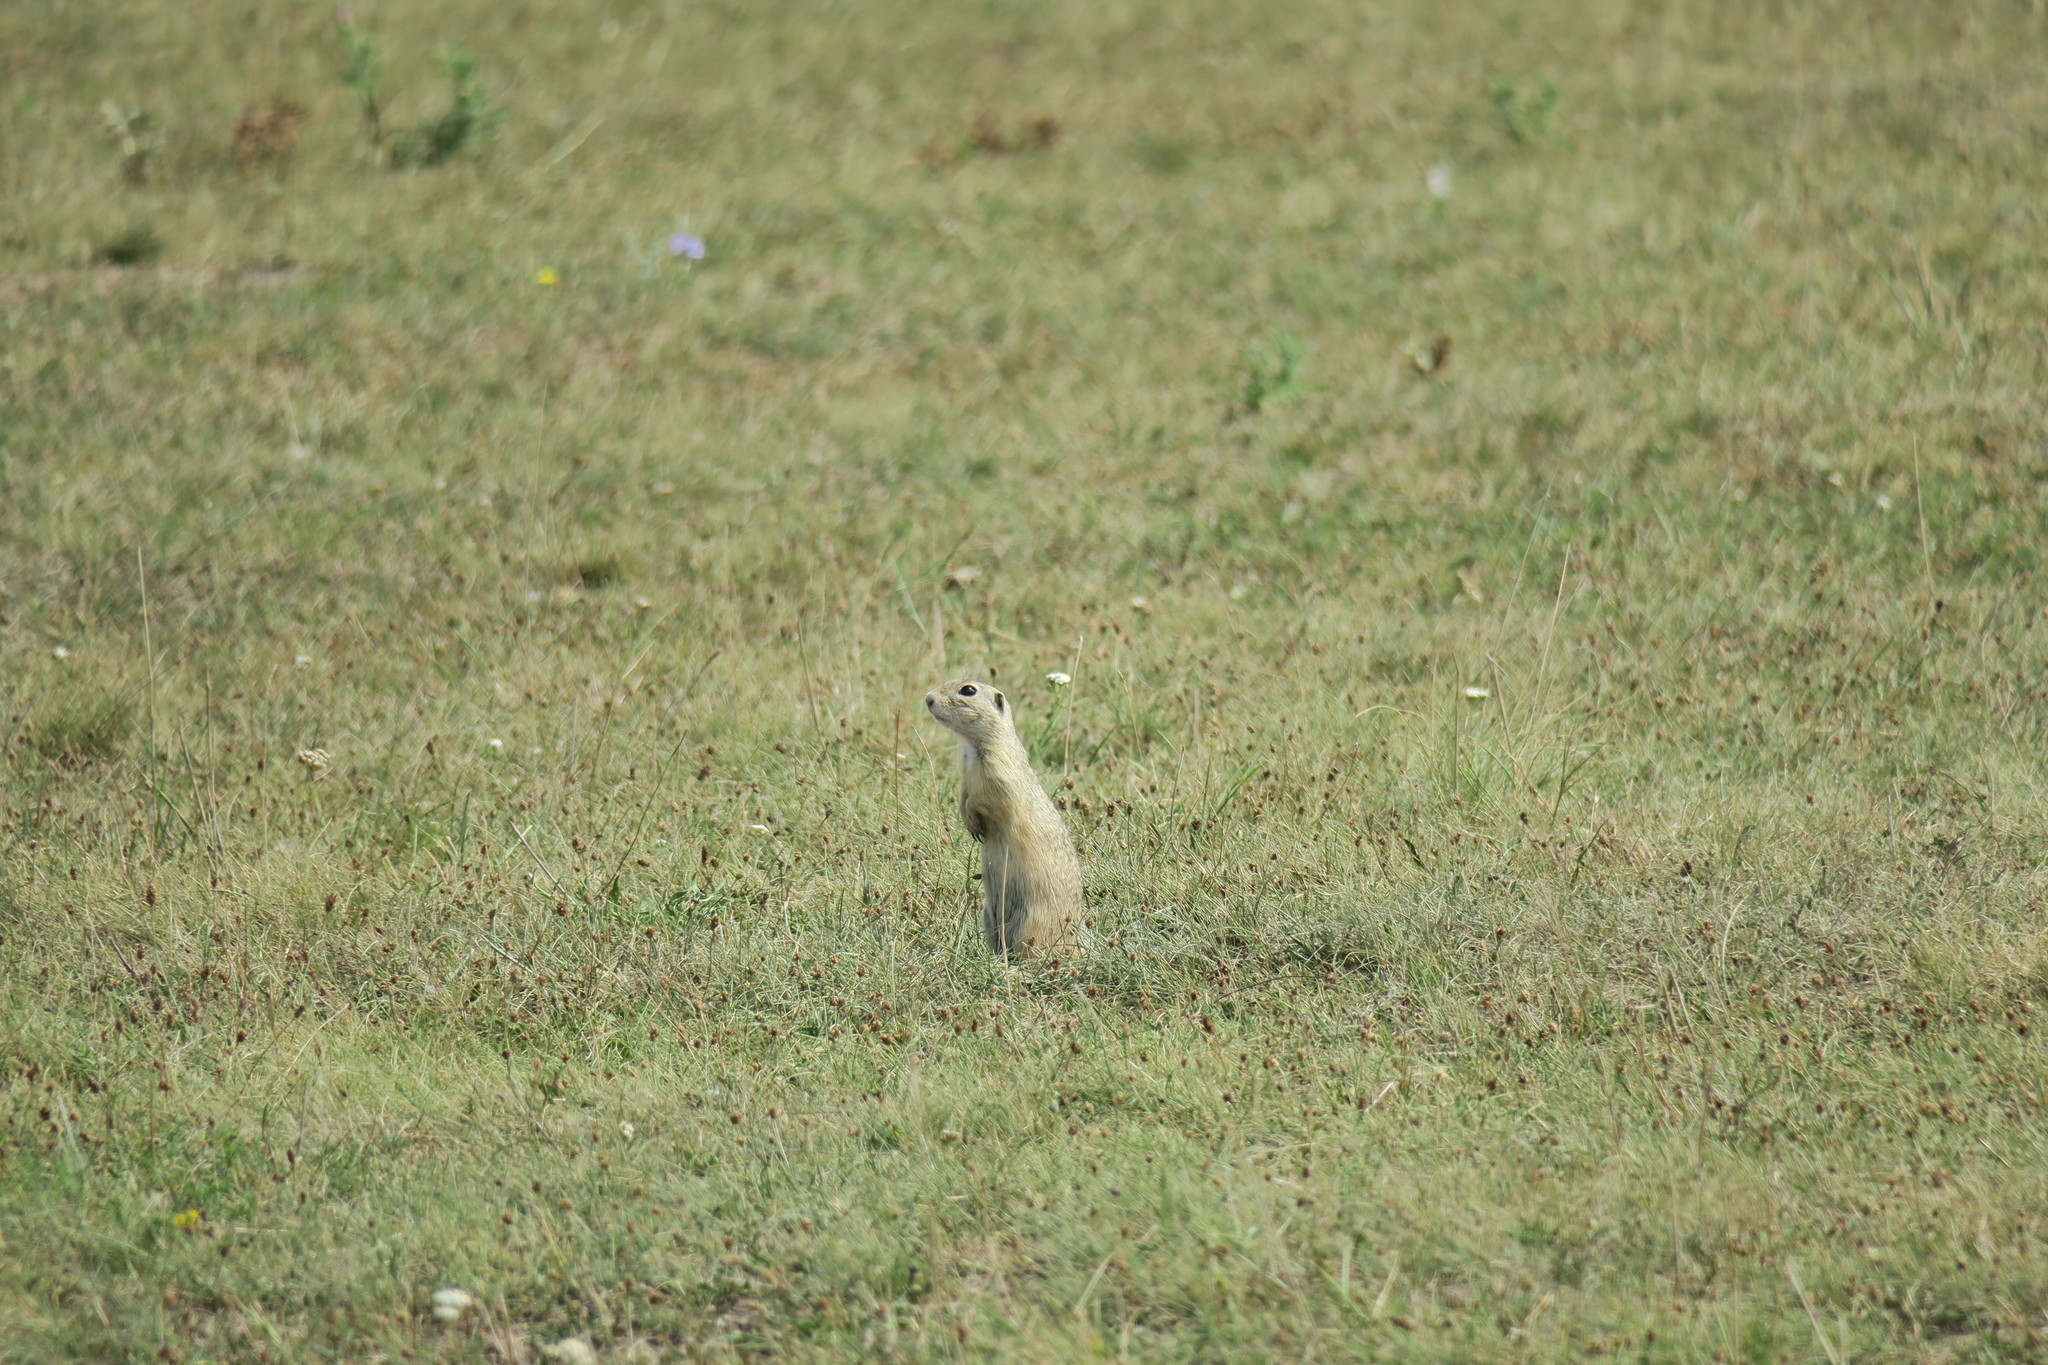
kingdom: Animalia
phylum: Chordata
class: Mammalia
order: Rodentia
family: Sciuridae
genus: Spermophilus
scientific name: Spermophilus citellus
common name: European ground squirrel
